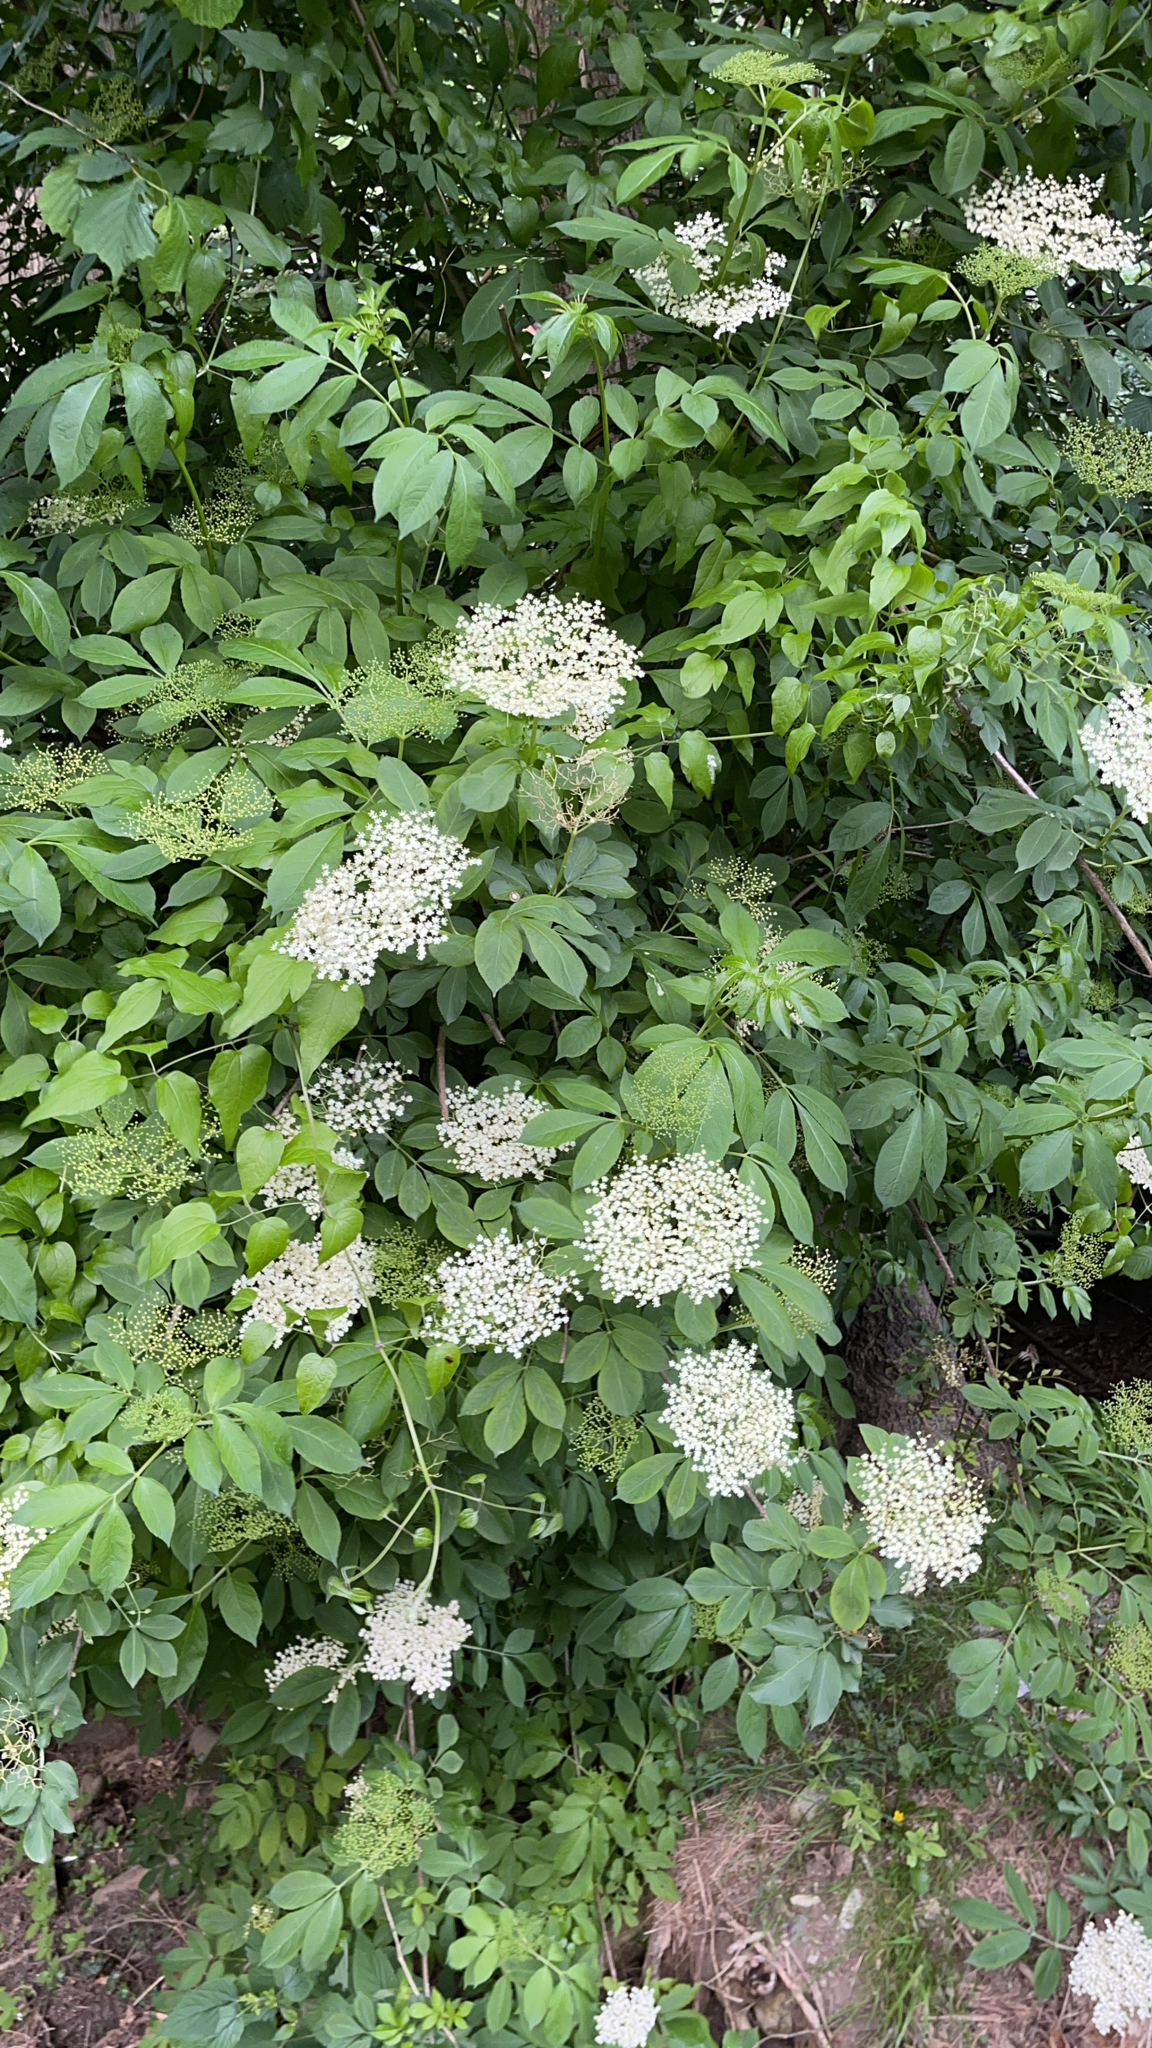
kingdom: Plantae
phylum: Tracheophyta
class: Magnoliopsida
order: Dipsacales
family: Viburnaceae
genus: Sambucus
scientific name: Sambucus nigra
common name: Elder
